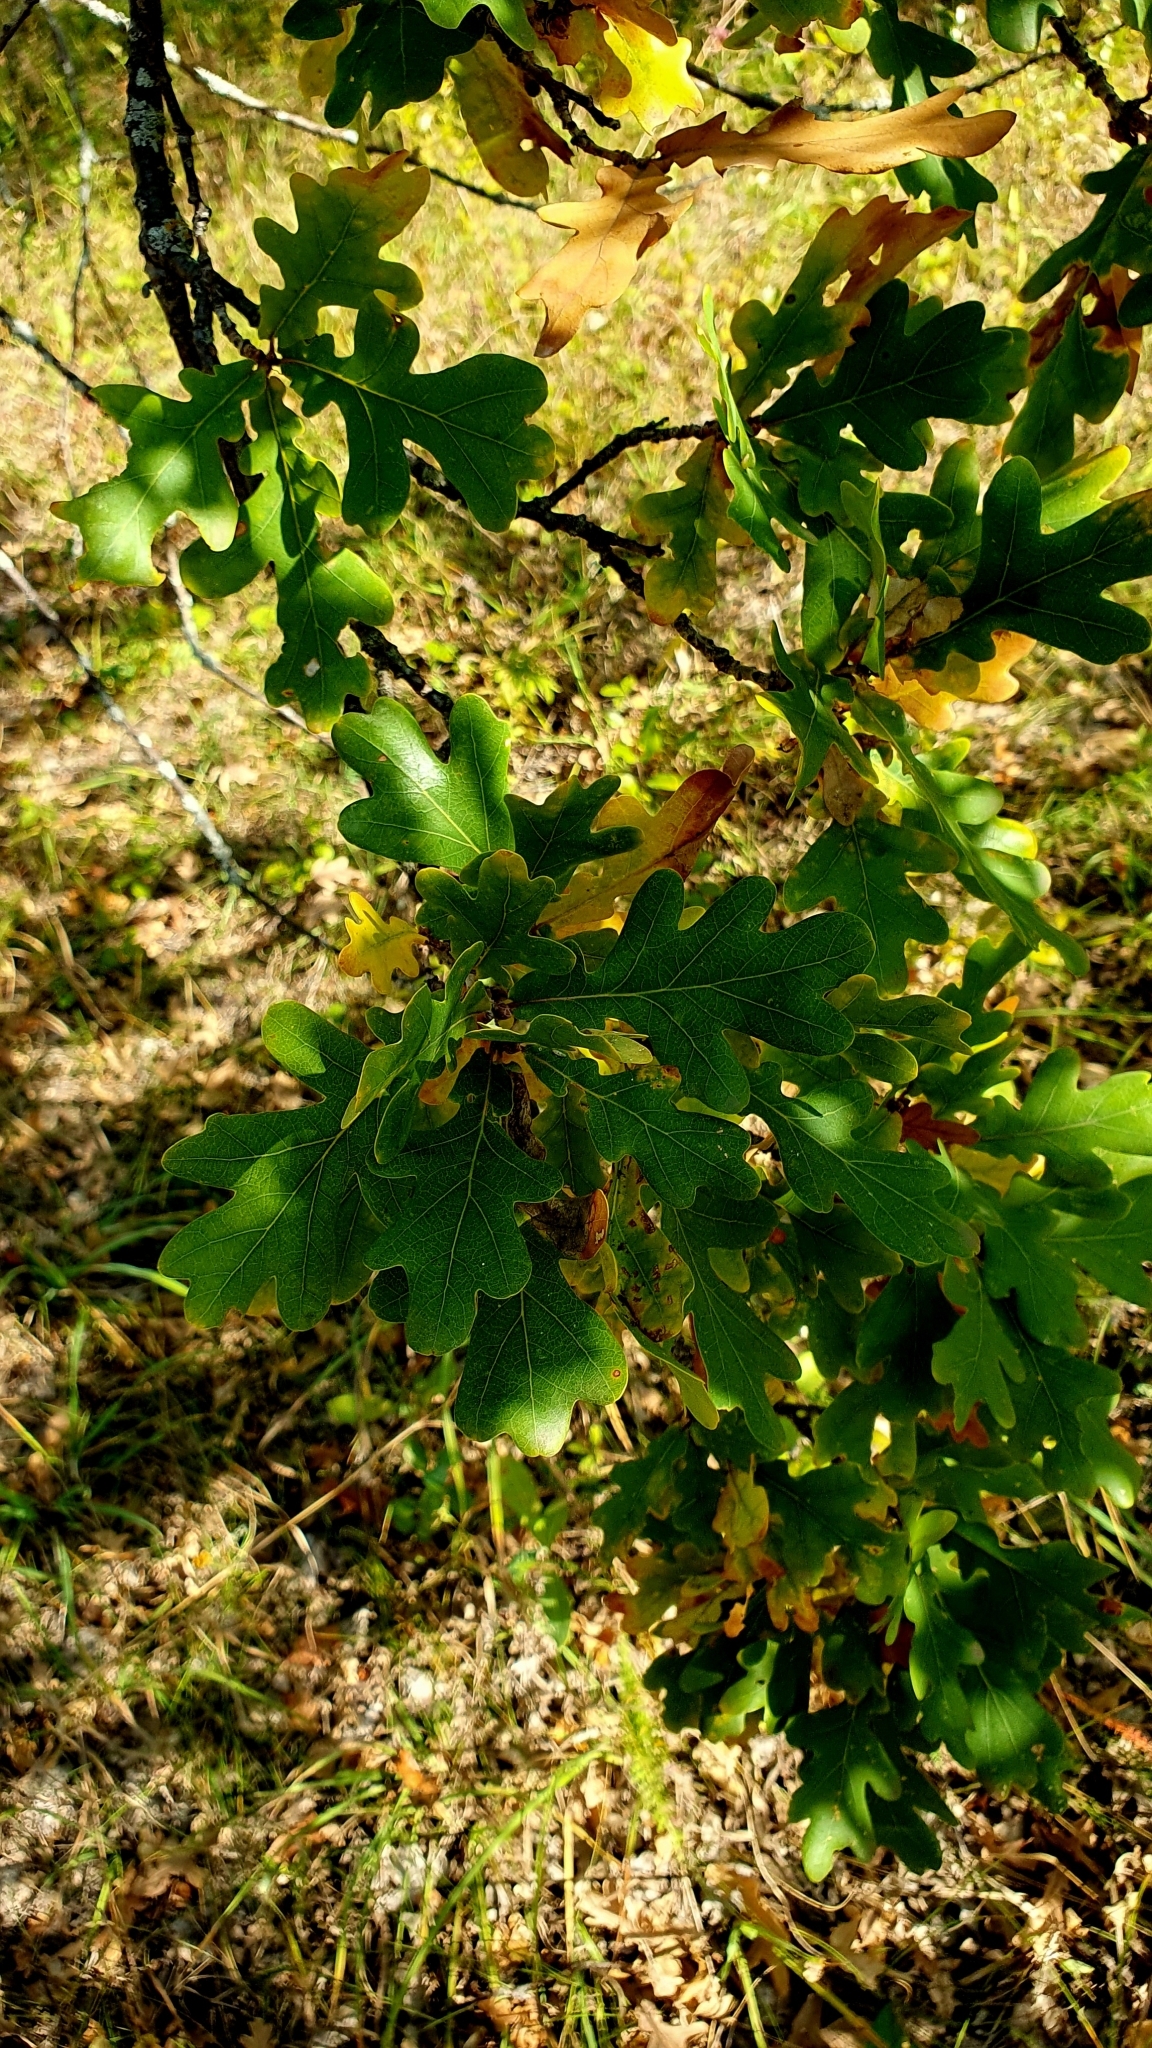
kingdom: Plantae
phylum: Tracheophyta
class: Magnoliopsida
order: Fagales
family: Fagaceae
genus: Quercus
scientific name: Quercus robur
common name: Pedunculate oak
